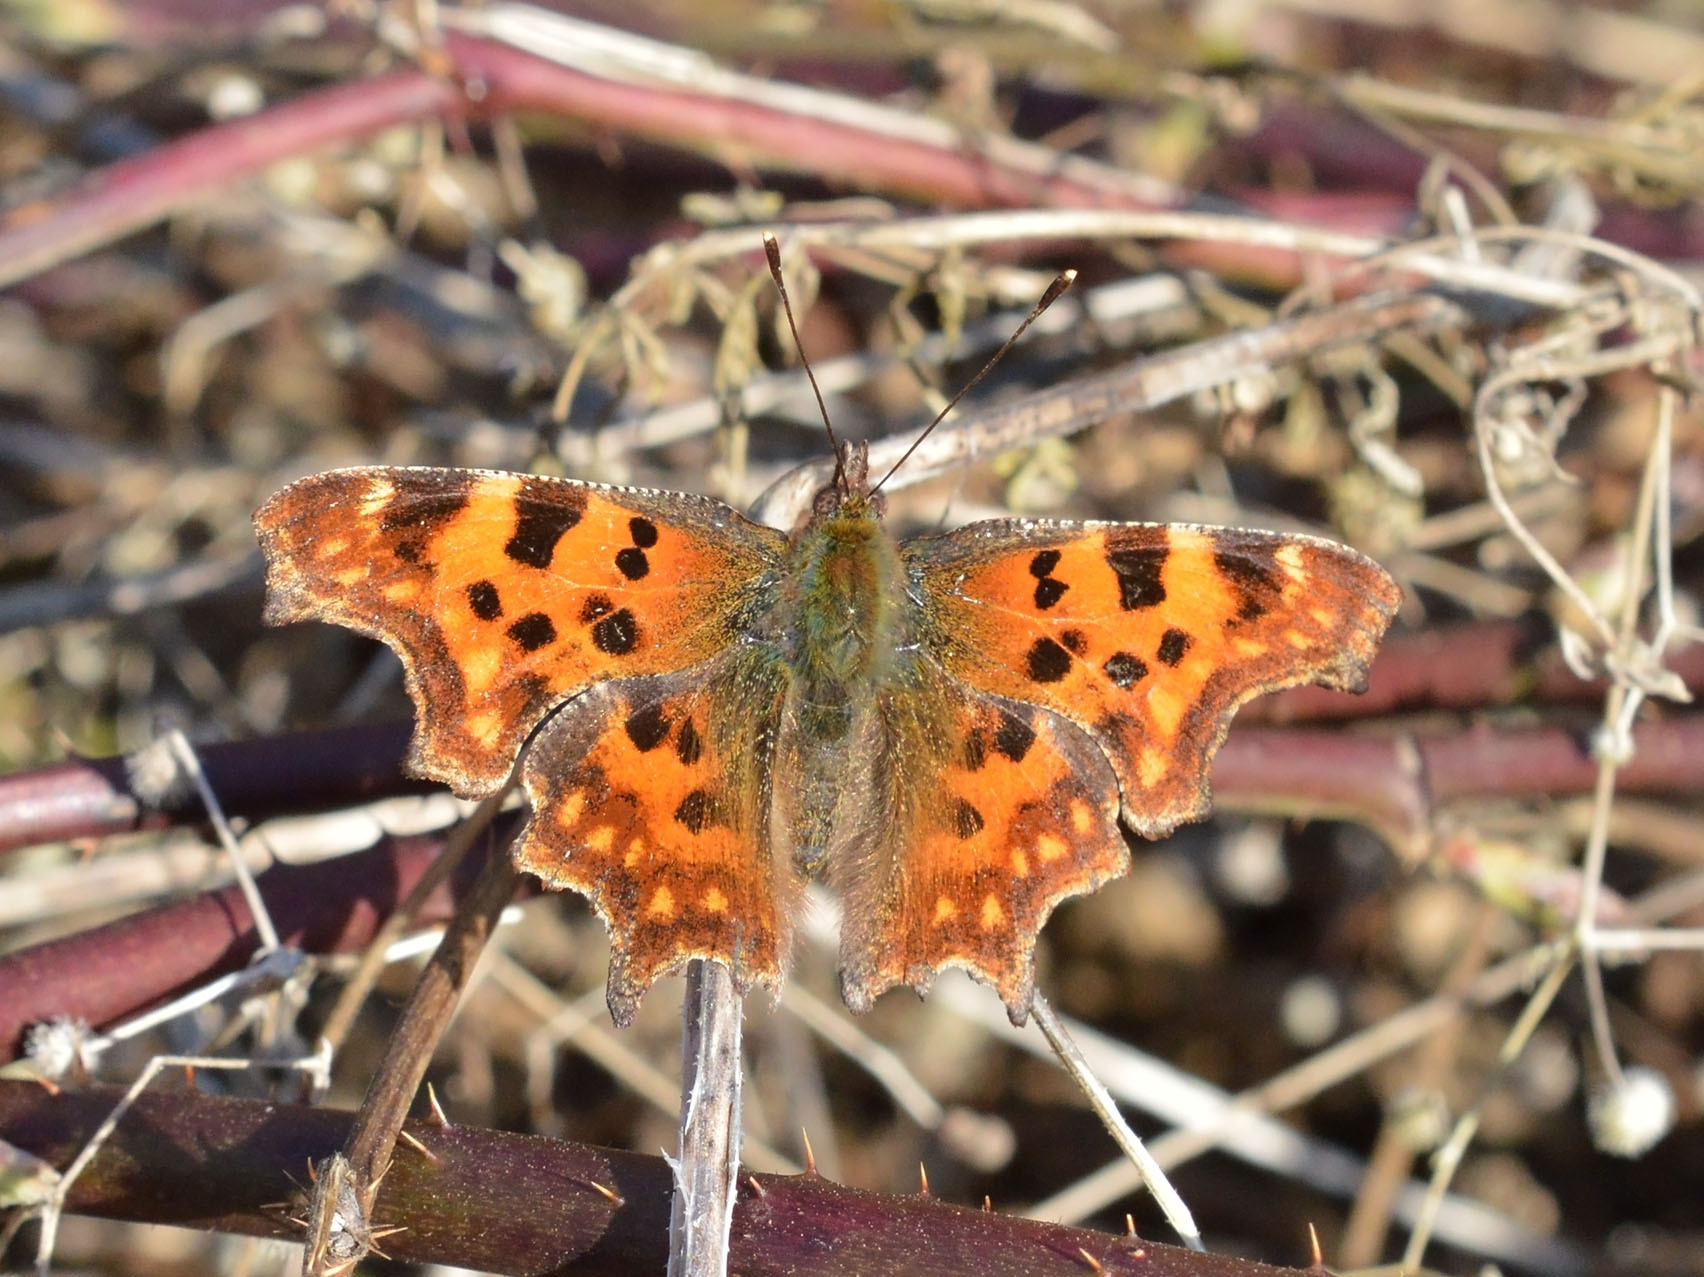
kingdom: Animalia
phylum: Arthropoda
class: Insecta
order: Lepidoptera
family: Nymphalidae
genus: Polygonia
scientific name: Polygonia c-album
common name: Comma
